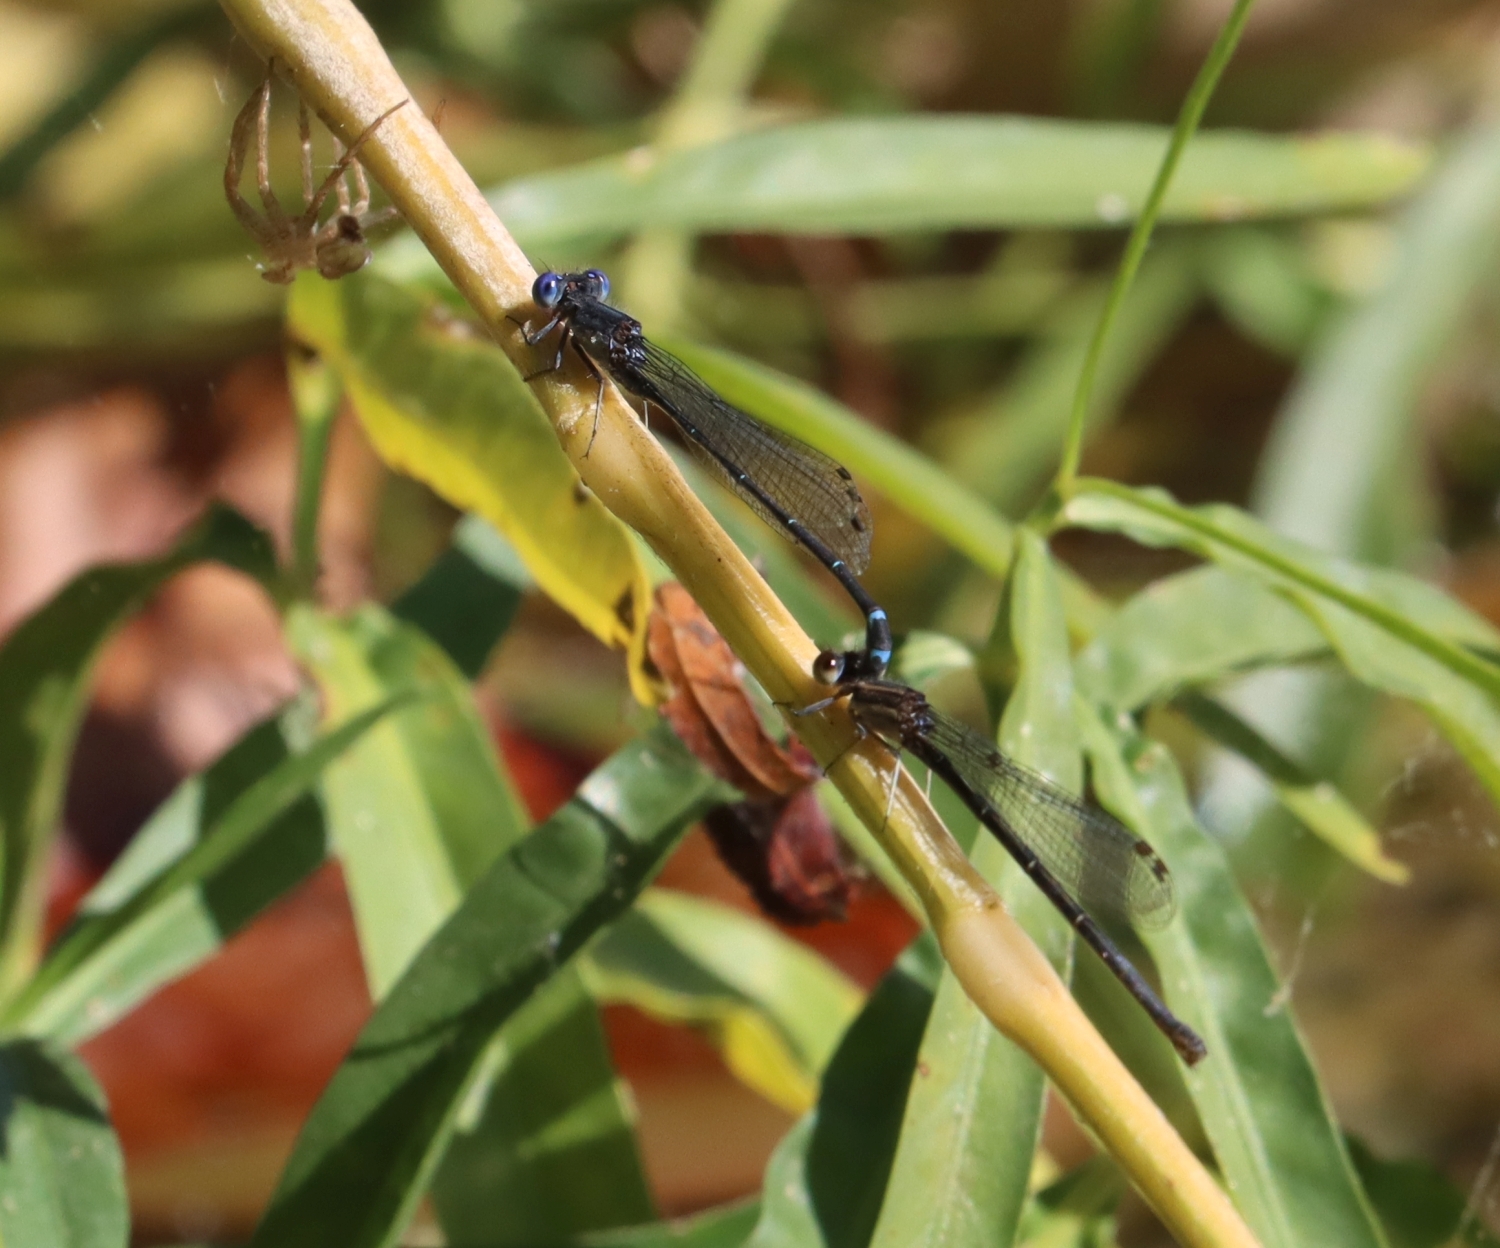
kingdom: Animalia
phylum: Arthropoda
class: Insecta
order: Odonata
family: Coenagrionidae
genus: Argia
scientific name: Argia translata
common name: Dusky dancer
